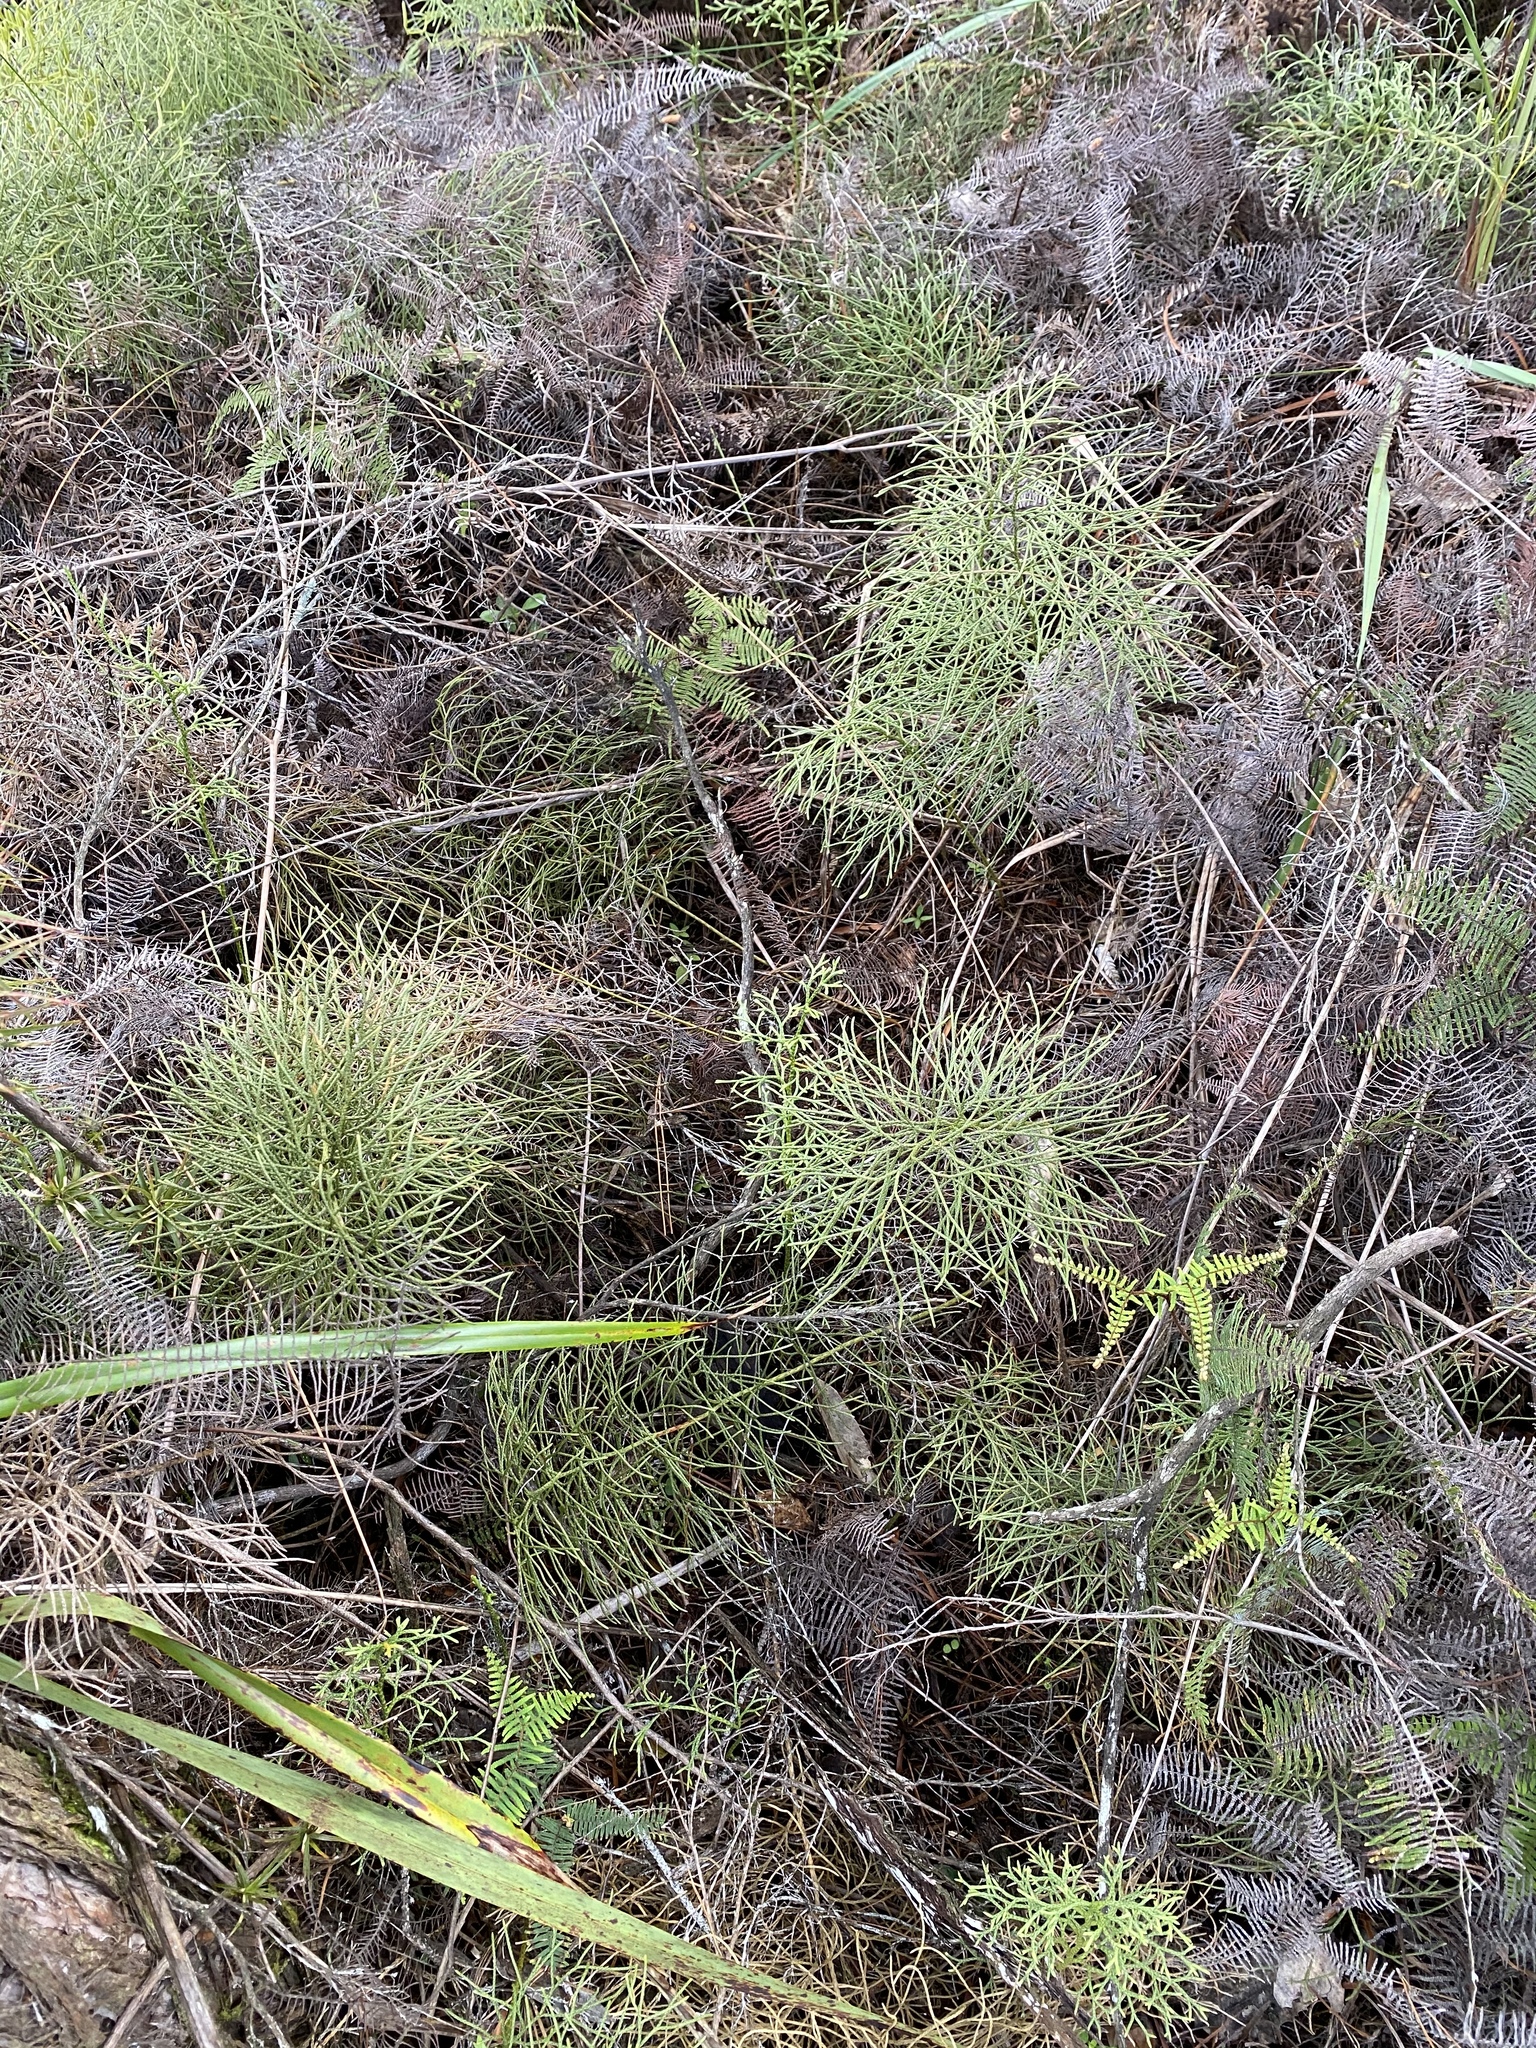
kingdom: Plantae
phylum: Tracheophyta
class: Lycopodiopsida
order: Lycopodiales
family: Lycopodiaceae
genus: Pseudolycopodium
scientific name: Pseudolycopodium densum
